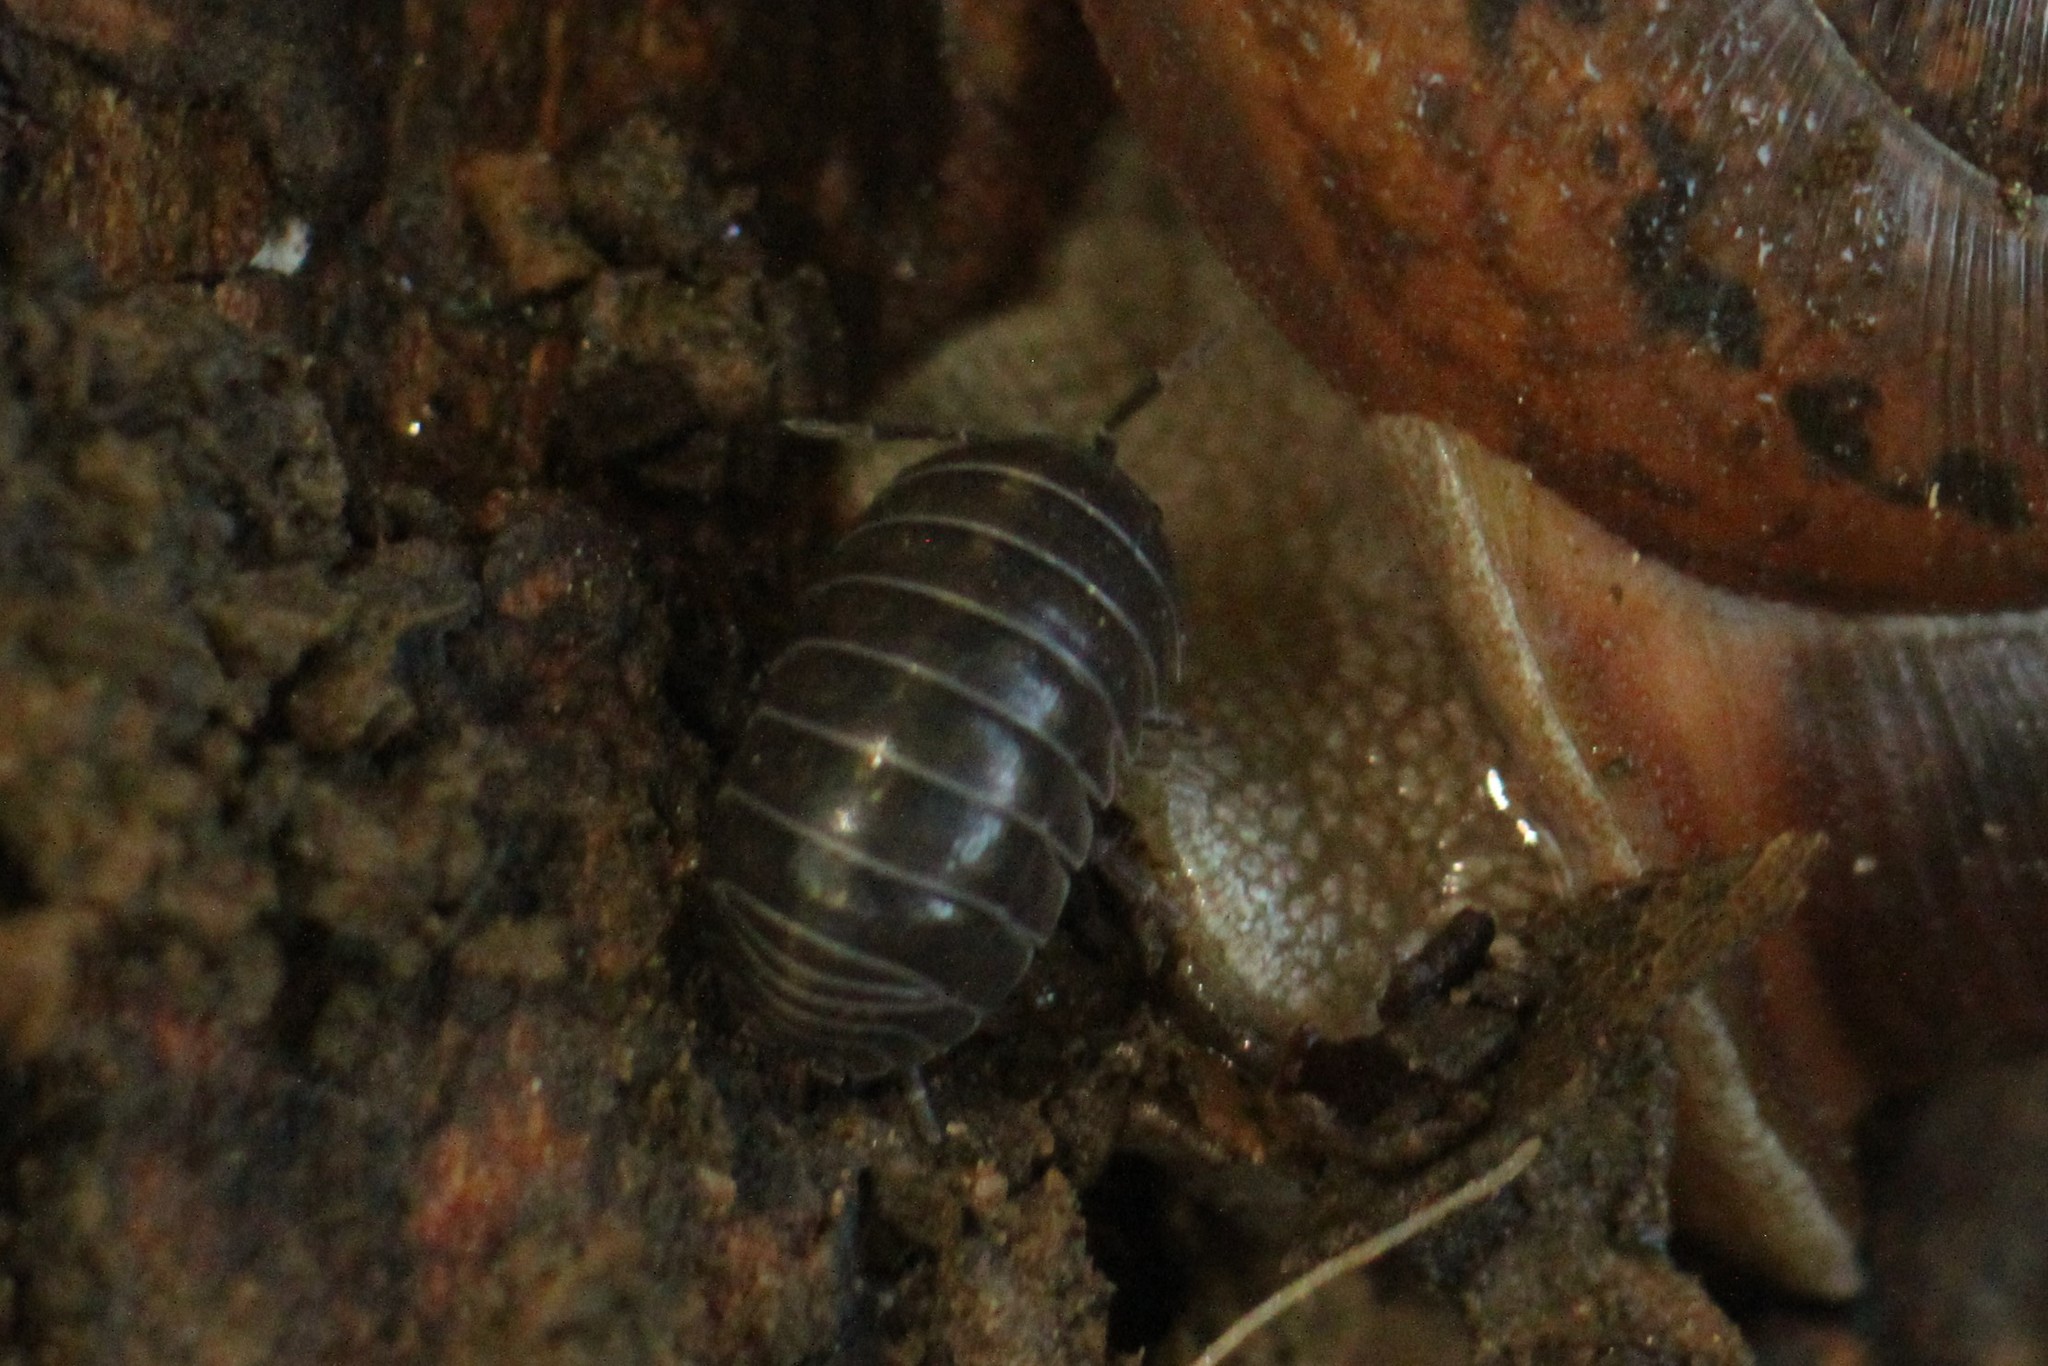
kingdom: Animalia
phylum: Arthropoda
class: Malacostraca
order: Isopoda
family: Armadillidiidae
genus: Armadillidium
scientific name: Armadillidium vulgare
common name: Common pill woodlouse
